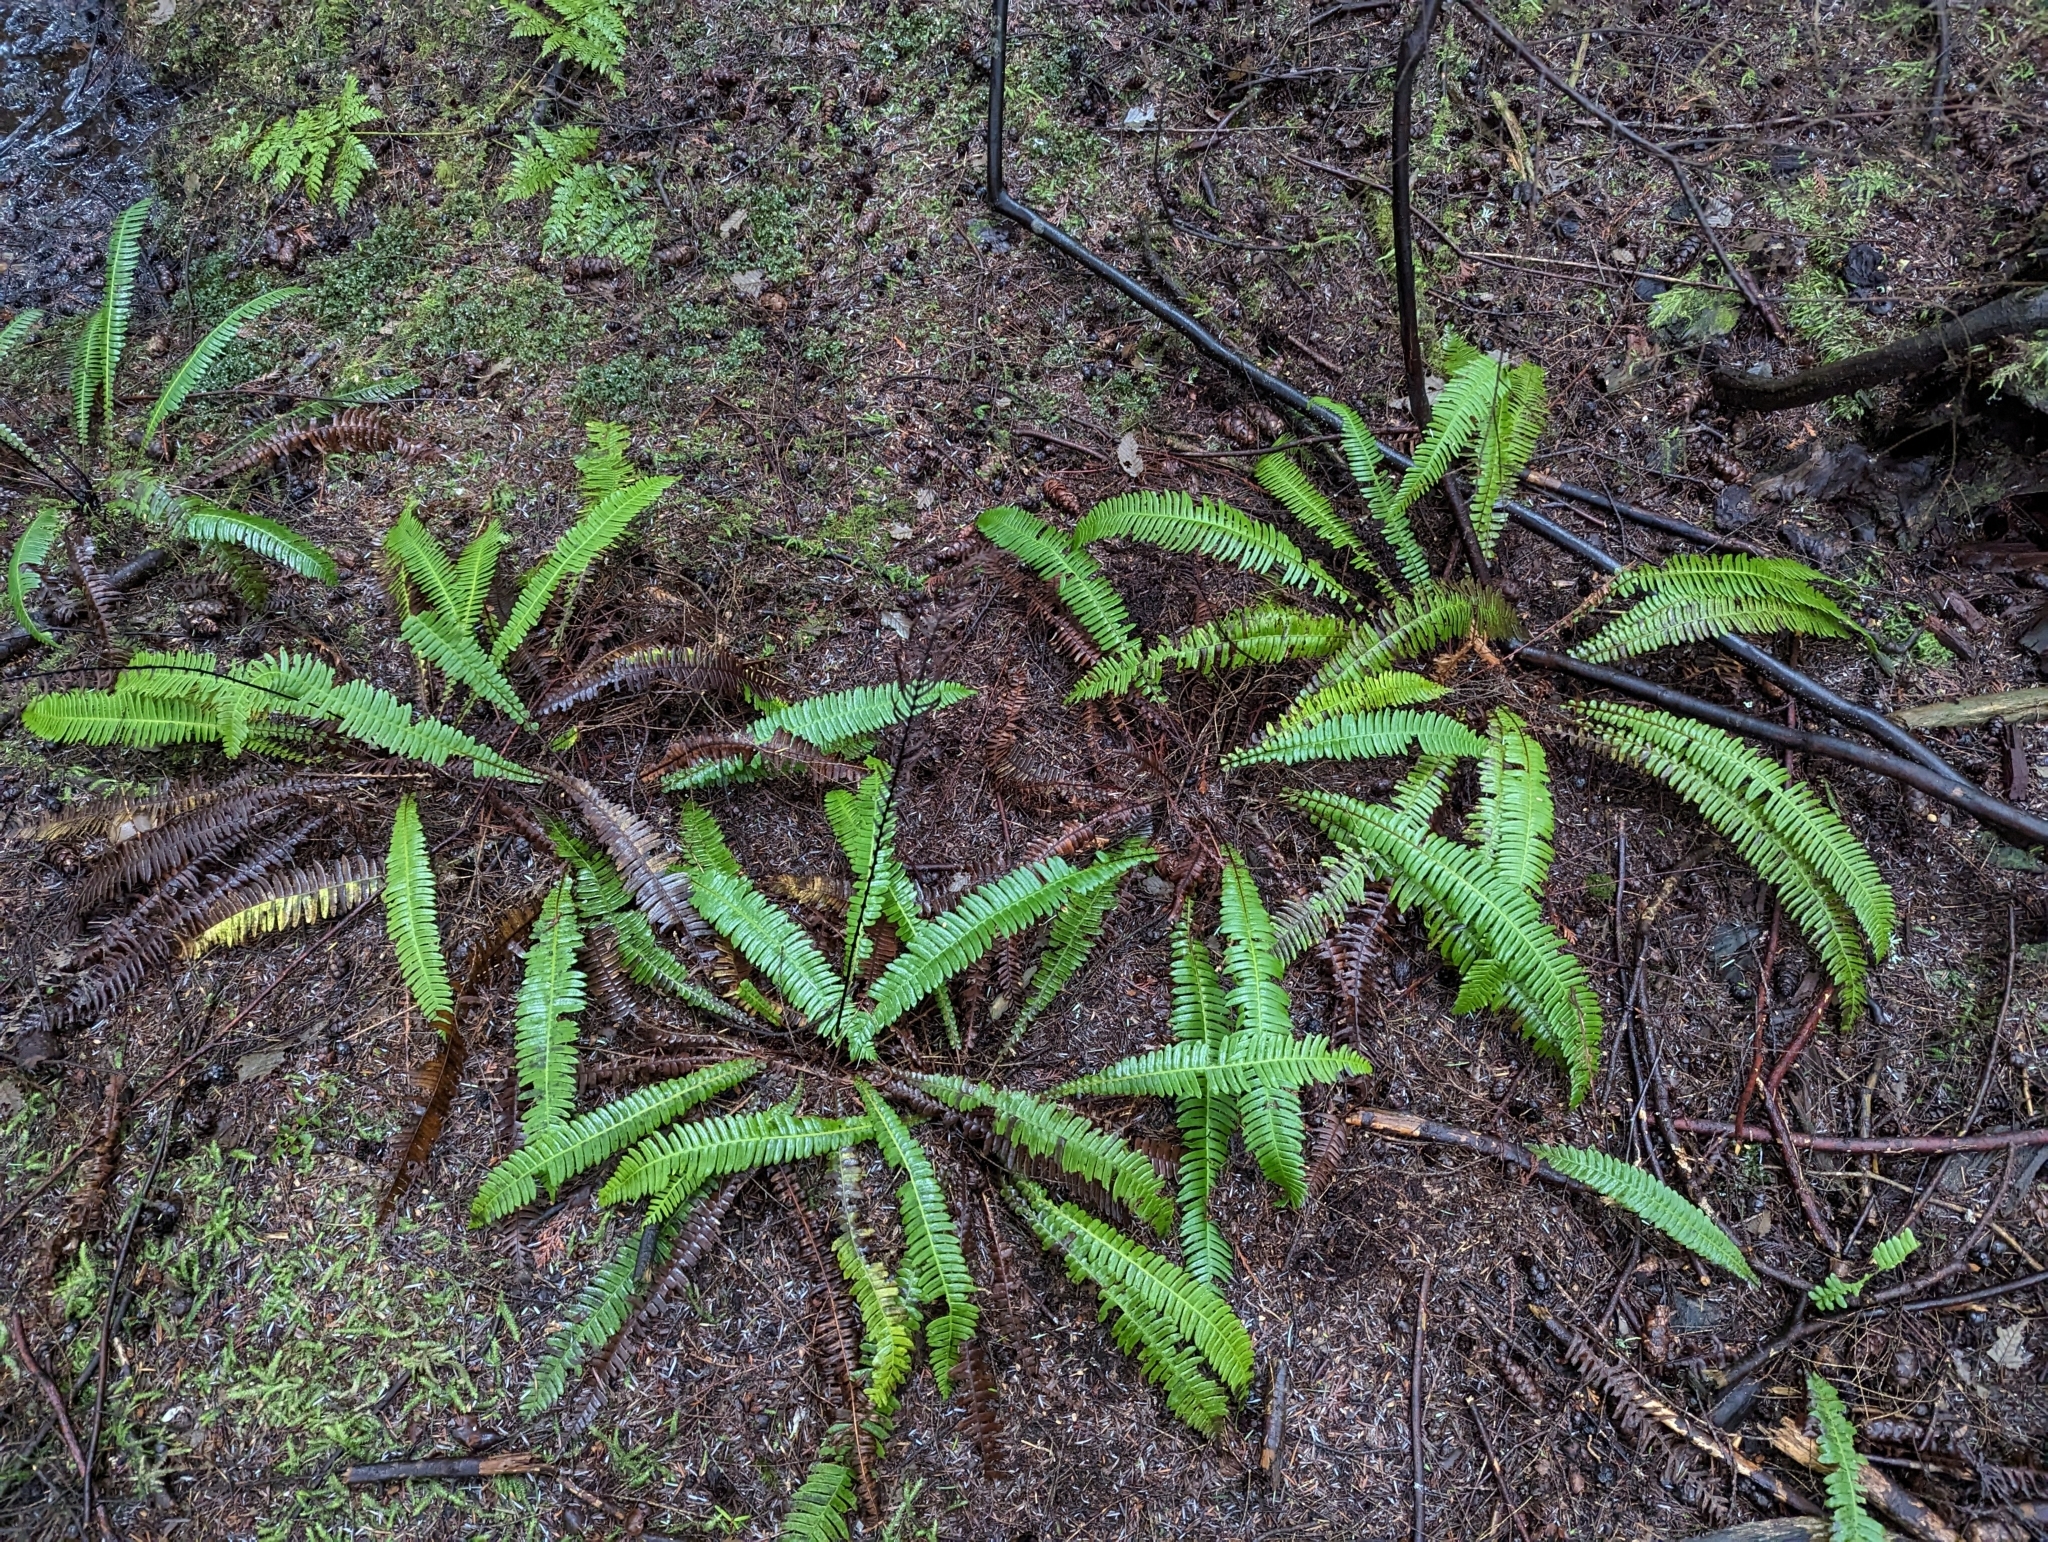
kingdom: Plantae
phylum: Tracheophyta
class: Polypodiopsida
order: Polypodiales
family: Blechnaceae
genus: Struthiopteris
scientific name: Struthiopteris spicant
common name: Deer fern
